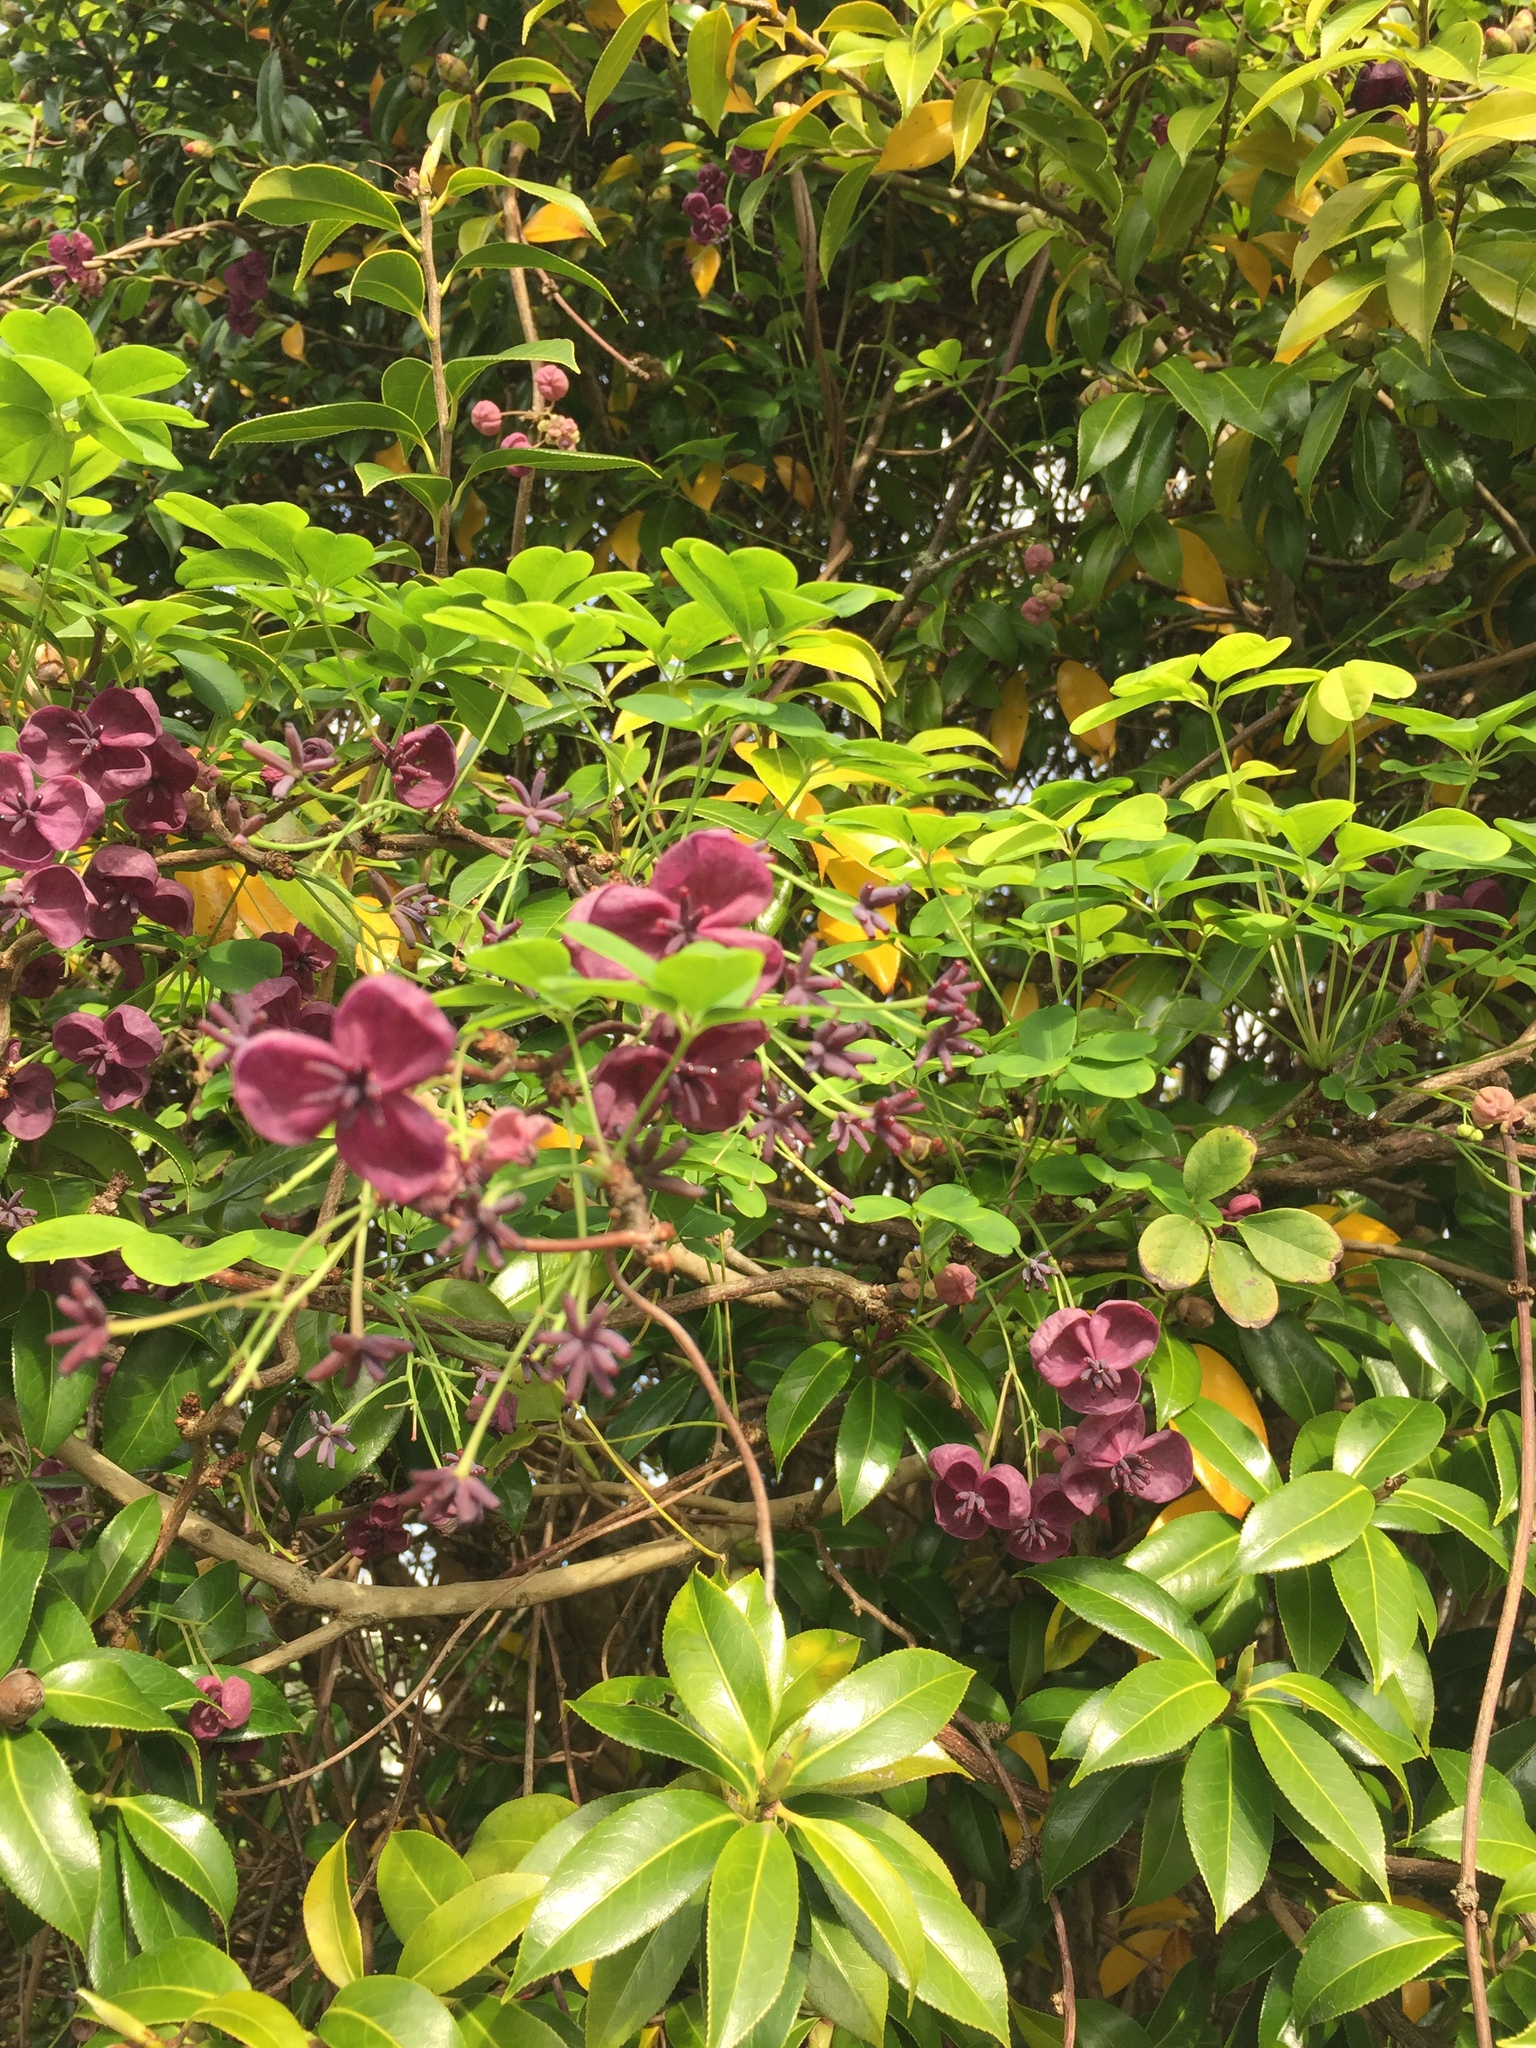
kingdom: Plantae
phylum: Tracheophyta
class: Magnoliopsida
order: Ranunculales
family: Lardizabalaceae
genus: Akebia
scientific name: Akebia quinata
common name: Five-leaf akebia
